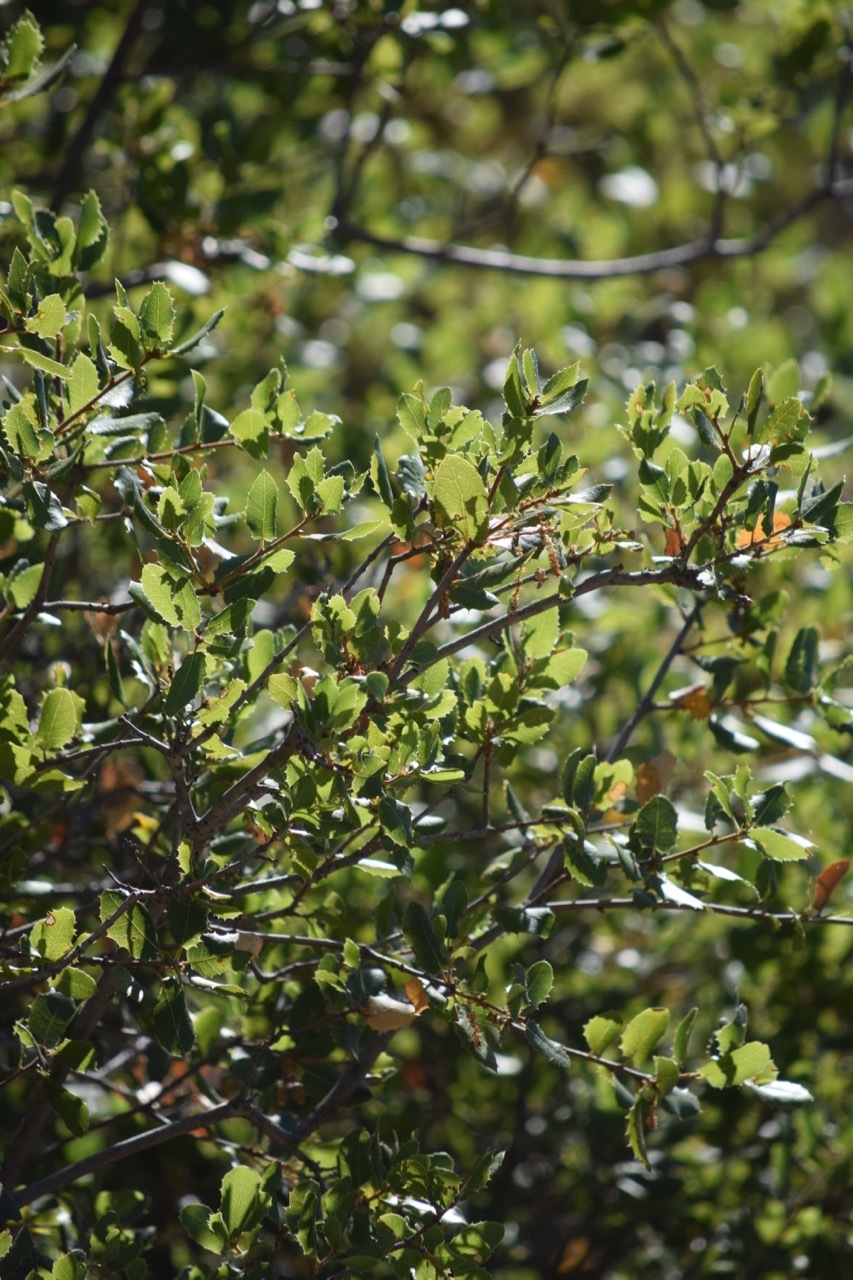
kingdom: Plantae
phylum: Tracheophyta
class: Magnoliopsida
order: Fagales
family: Fagaceae
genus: Quercus
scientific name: Quercus wislizeni
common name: Interior live oak
